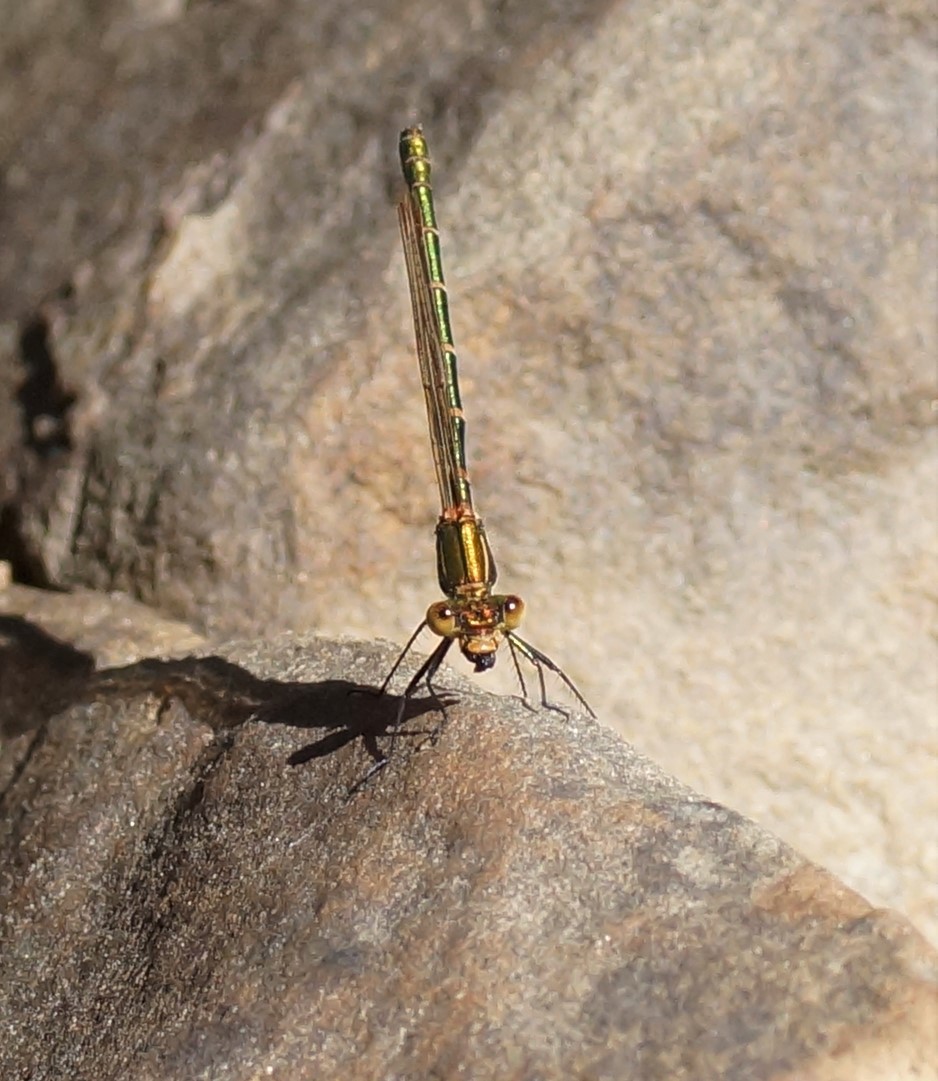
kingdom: Animalia
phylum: Arthropoda
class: Insecta
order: Odonata
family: Lestidae
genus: Austrolestes
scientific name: Austrolestes cingulatus
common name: Metallic ringtail
